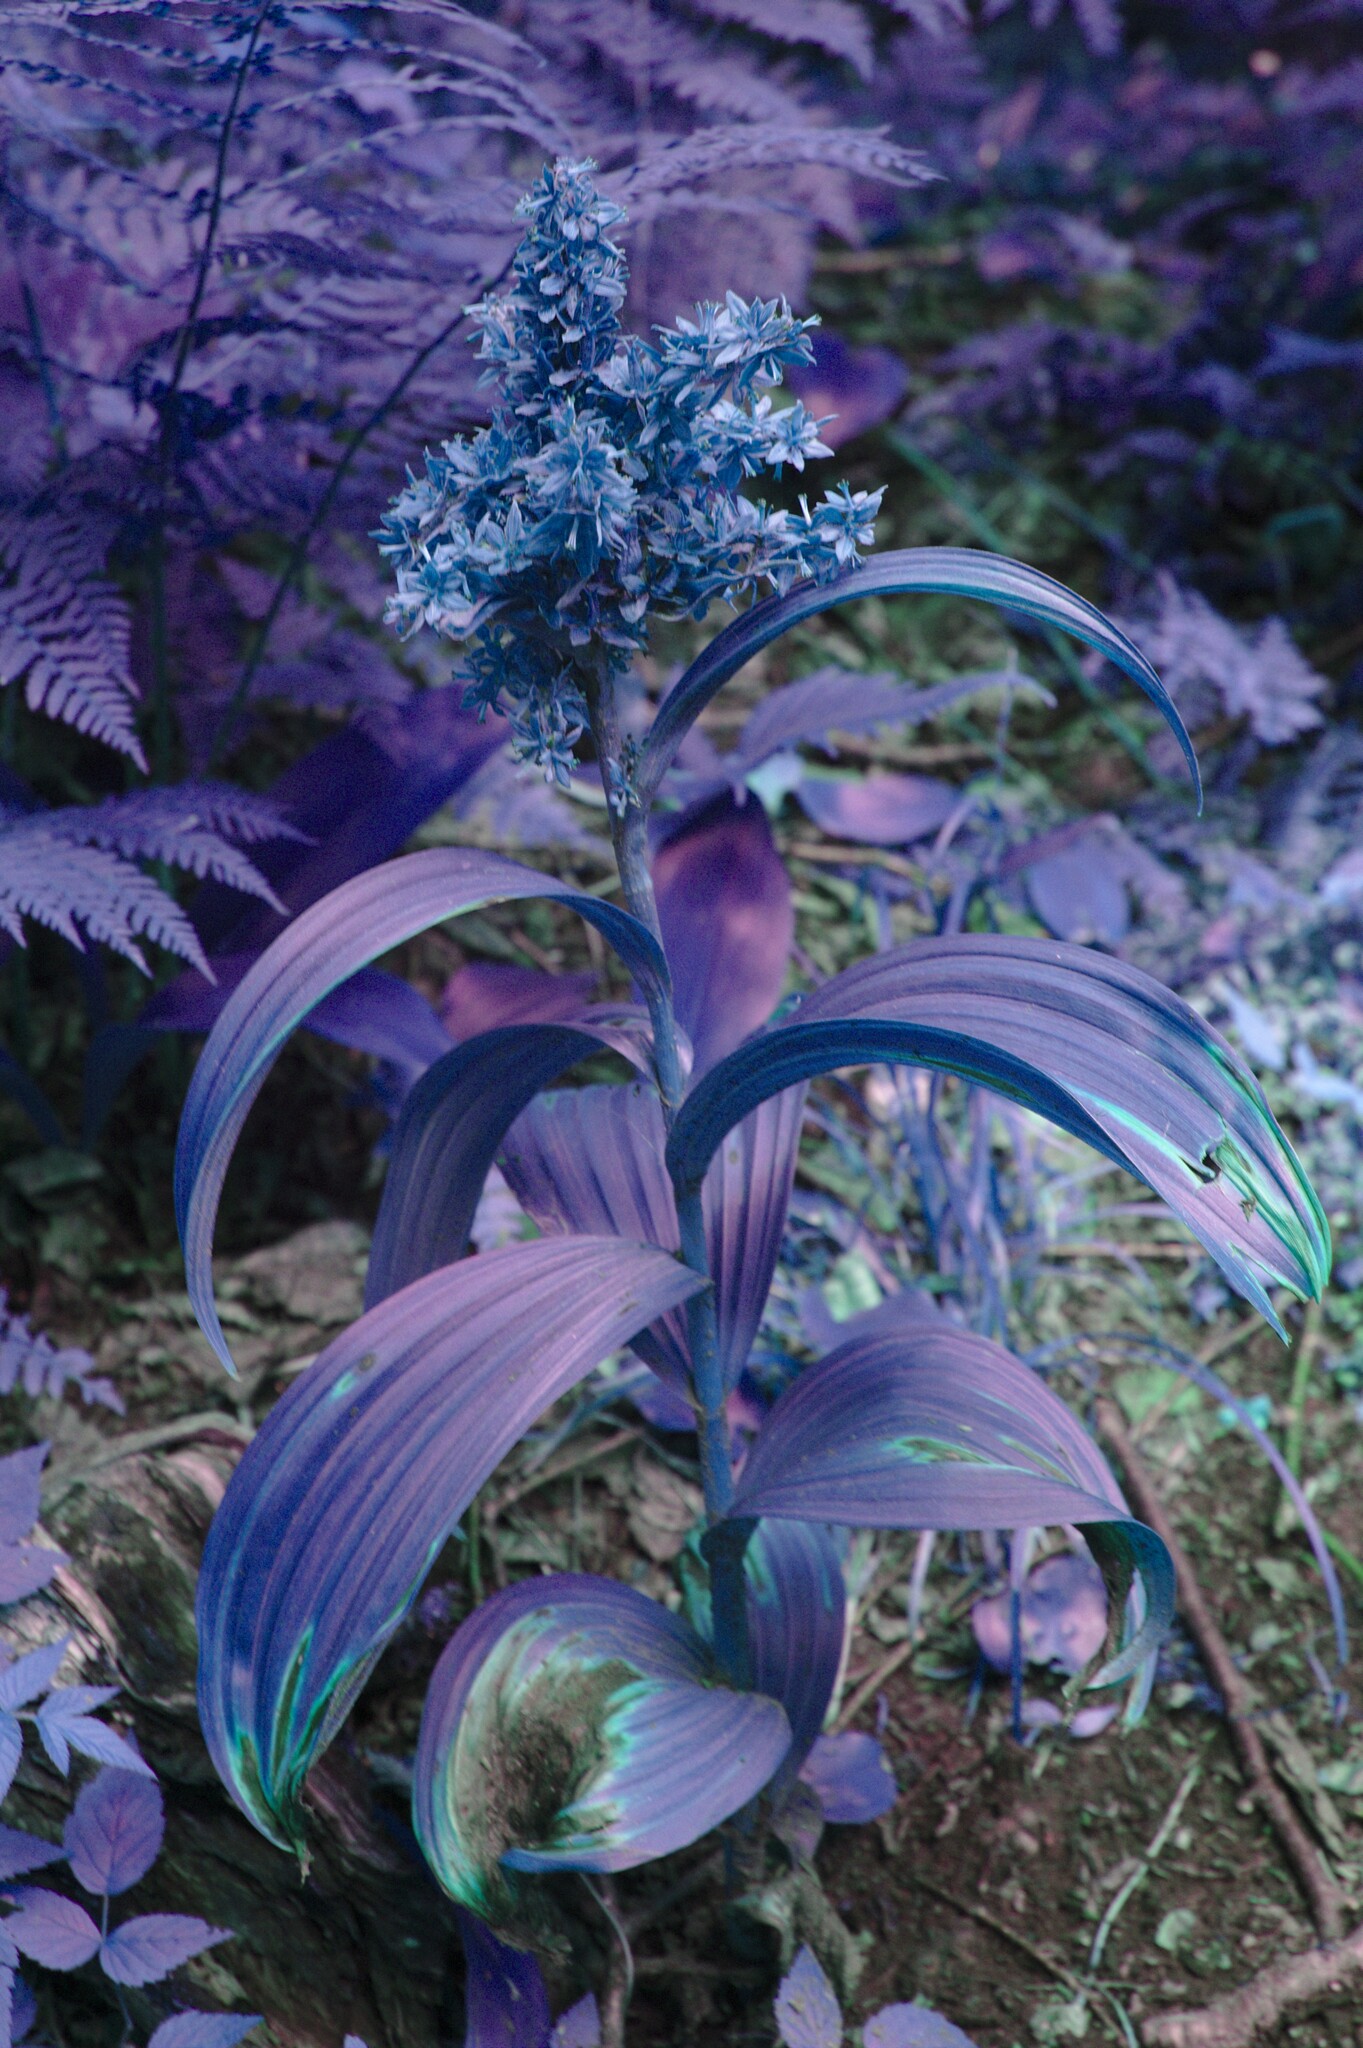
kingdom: Plantae
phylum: Tracheophyta
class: Liliopsida
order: Liliales
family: Melanthiaceae
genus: Veratrum
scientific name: Veratrum viride
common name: American false hellebore
